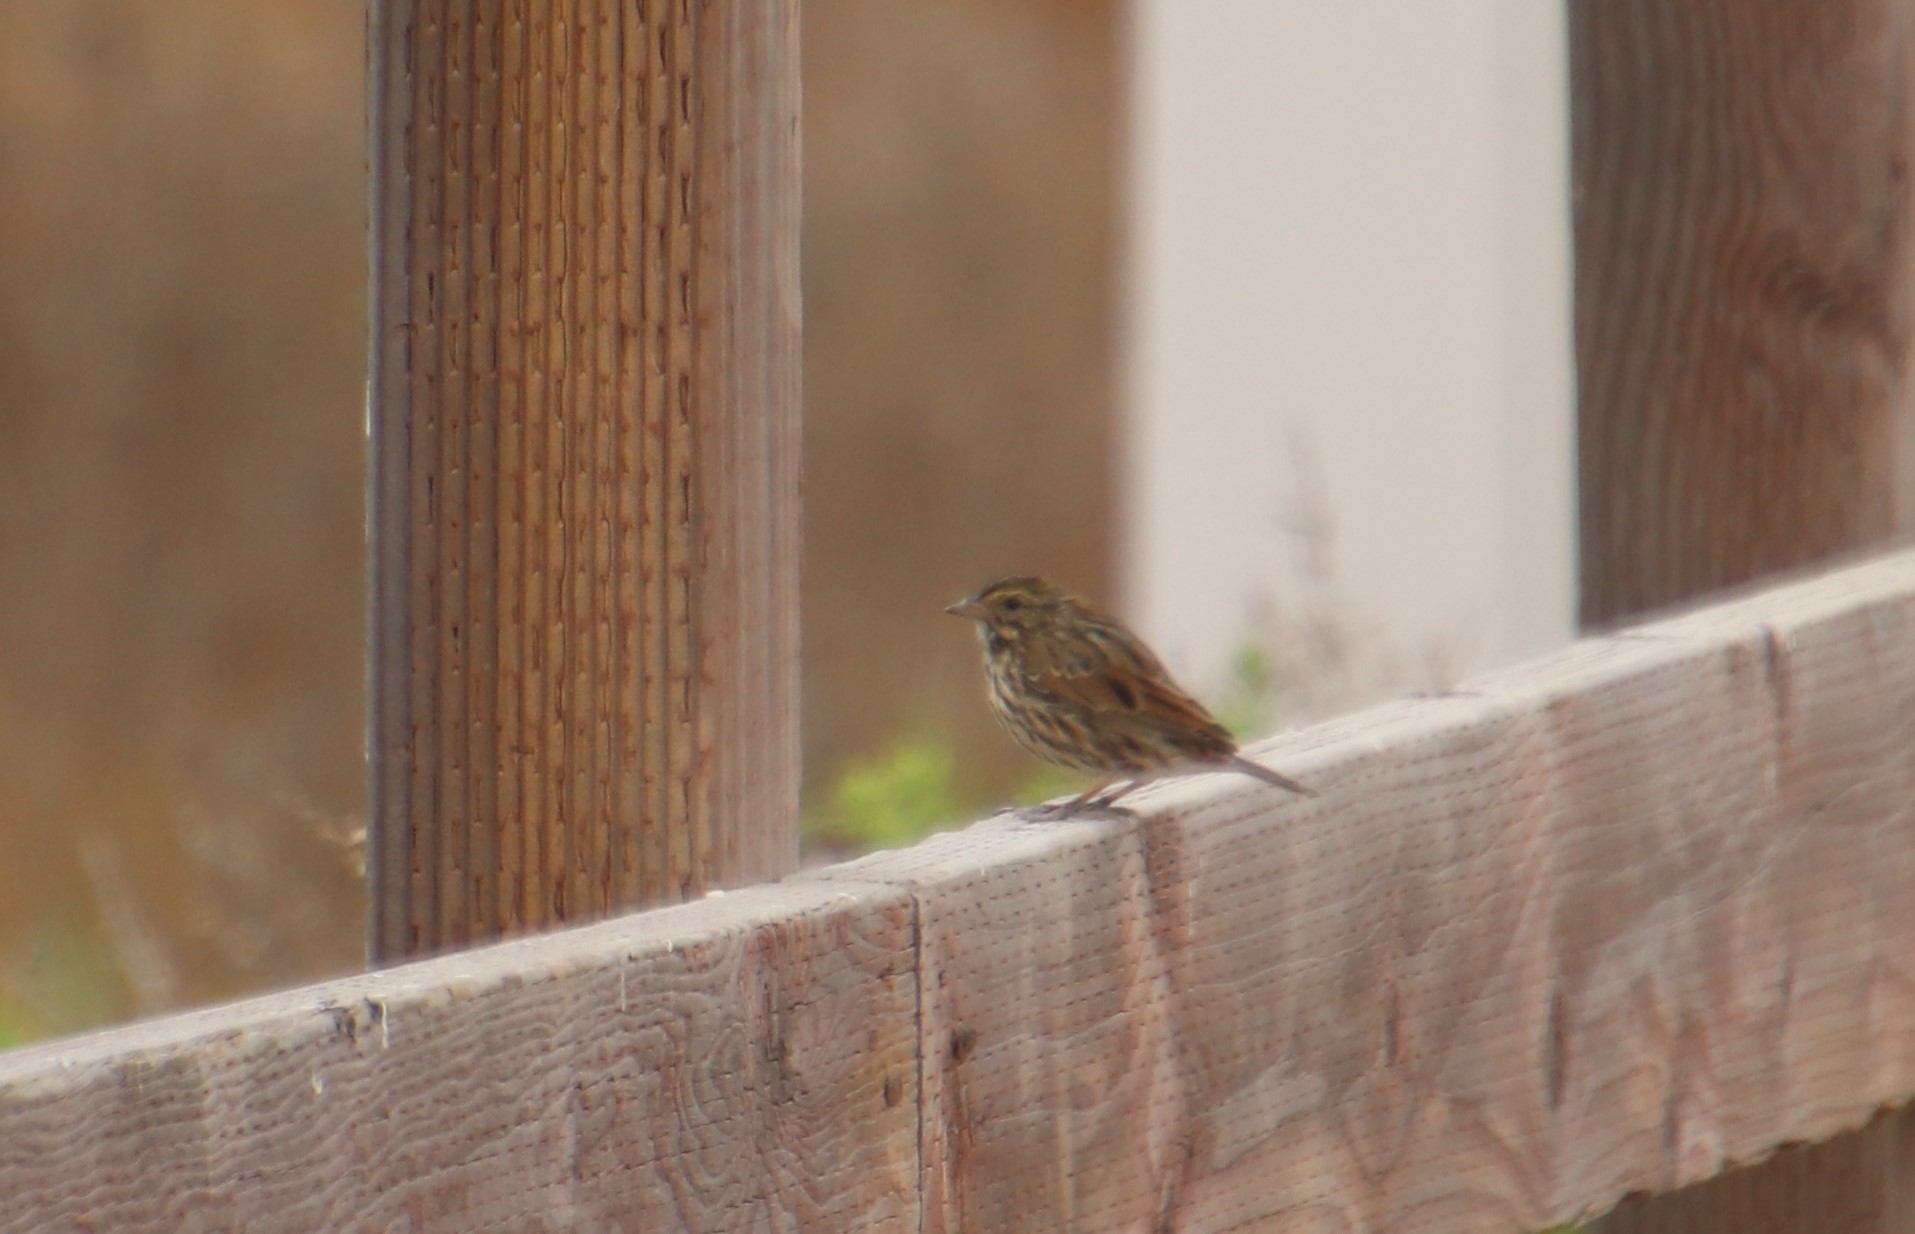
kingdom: Animalia
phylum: Chordata
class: Aves
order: Passeriformes
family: Passerellidae
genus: Passerculus
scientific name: Passerculus sandwichensis
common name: Savannah sparrow
